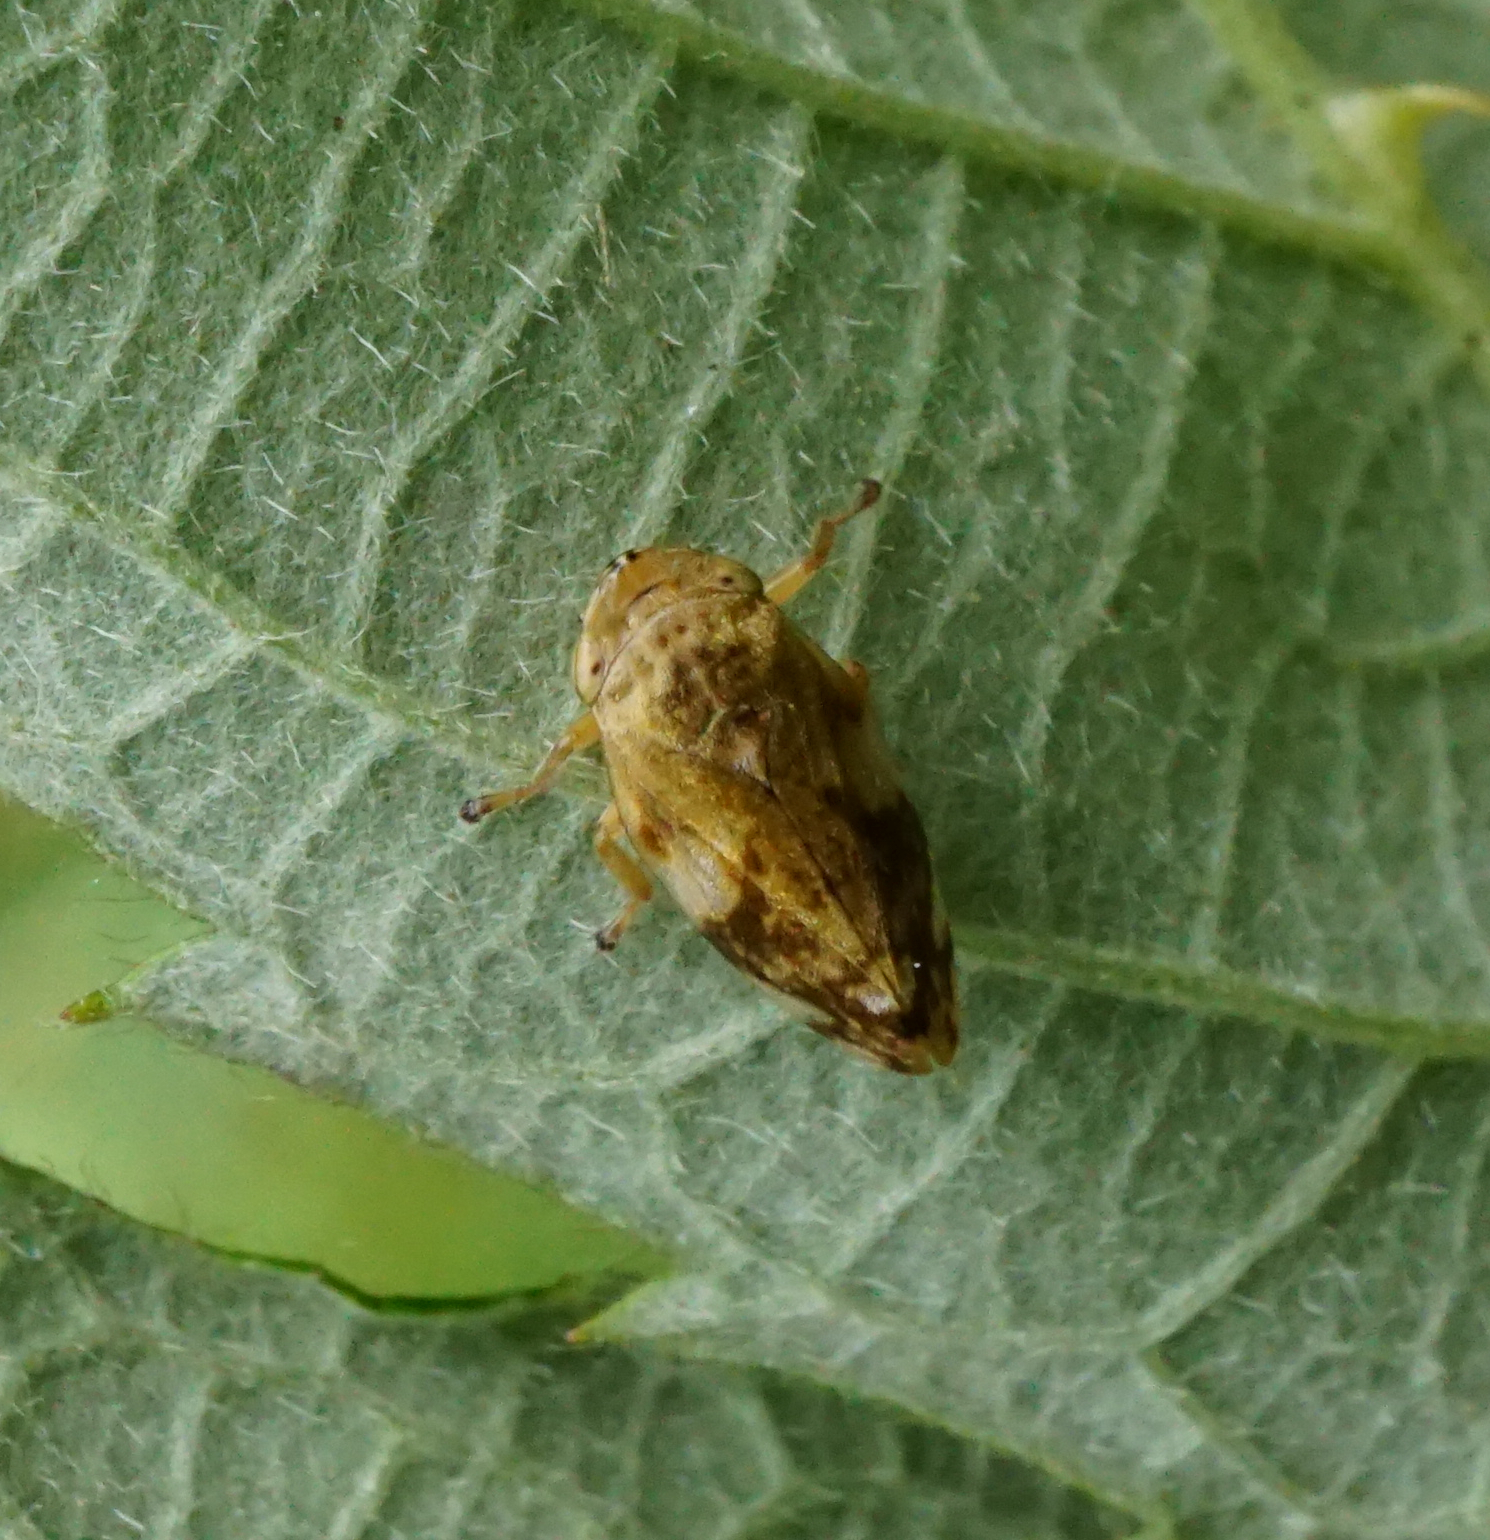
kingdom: Animalia
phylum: Arthropoda
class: Insecta
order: Hemiptera
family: Aphrophoridae
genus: Philaenus
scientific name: Philaenus spumarius
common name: Meadow spittlebug
